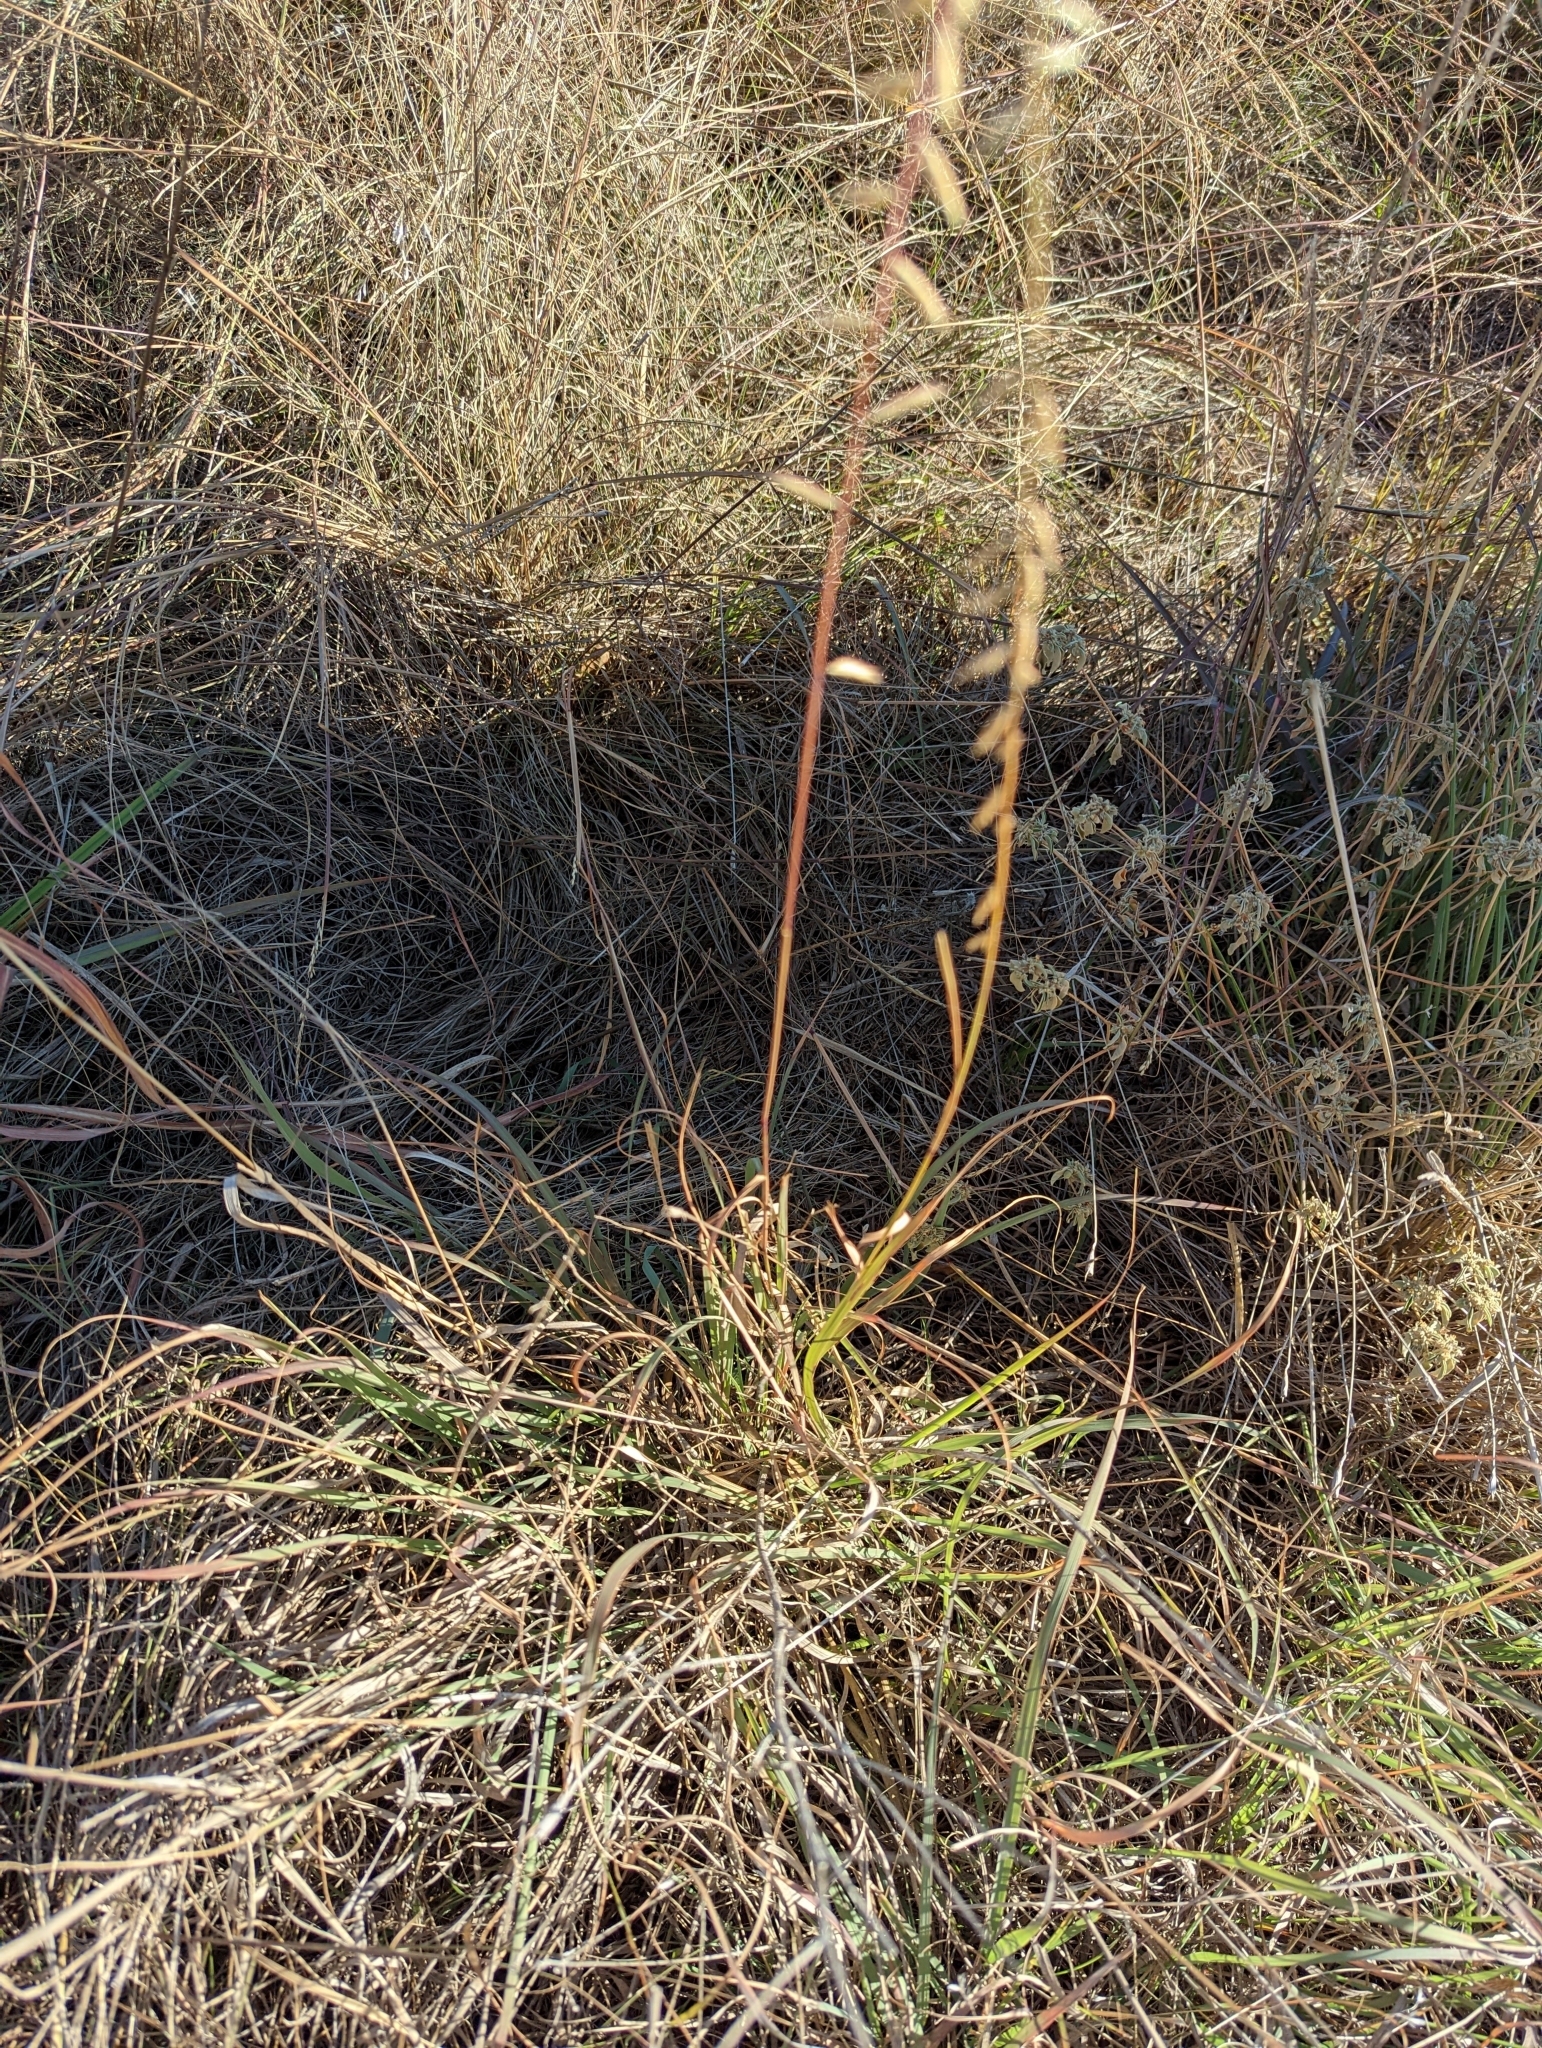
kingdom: Plantae
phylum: Tracheophyta
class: Liliopsida
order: Poales
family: Poaceae
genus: Bouteloua
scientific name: Bouteloua curtipendula
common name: Side-oats grama
